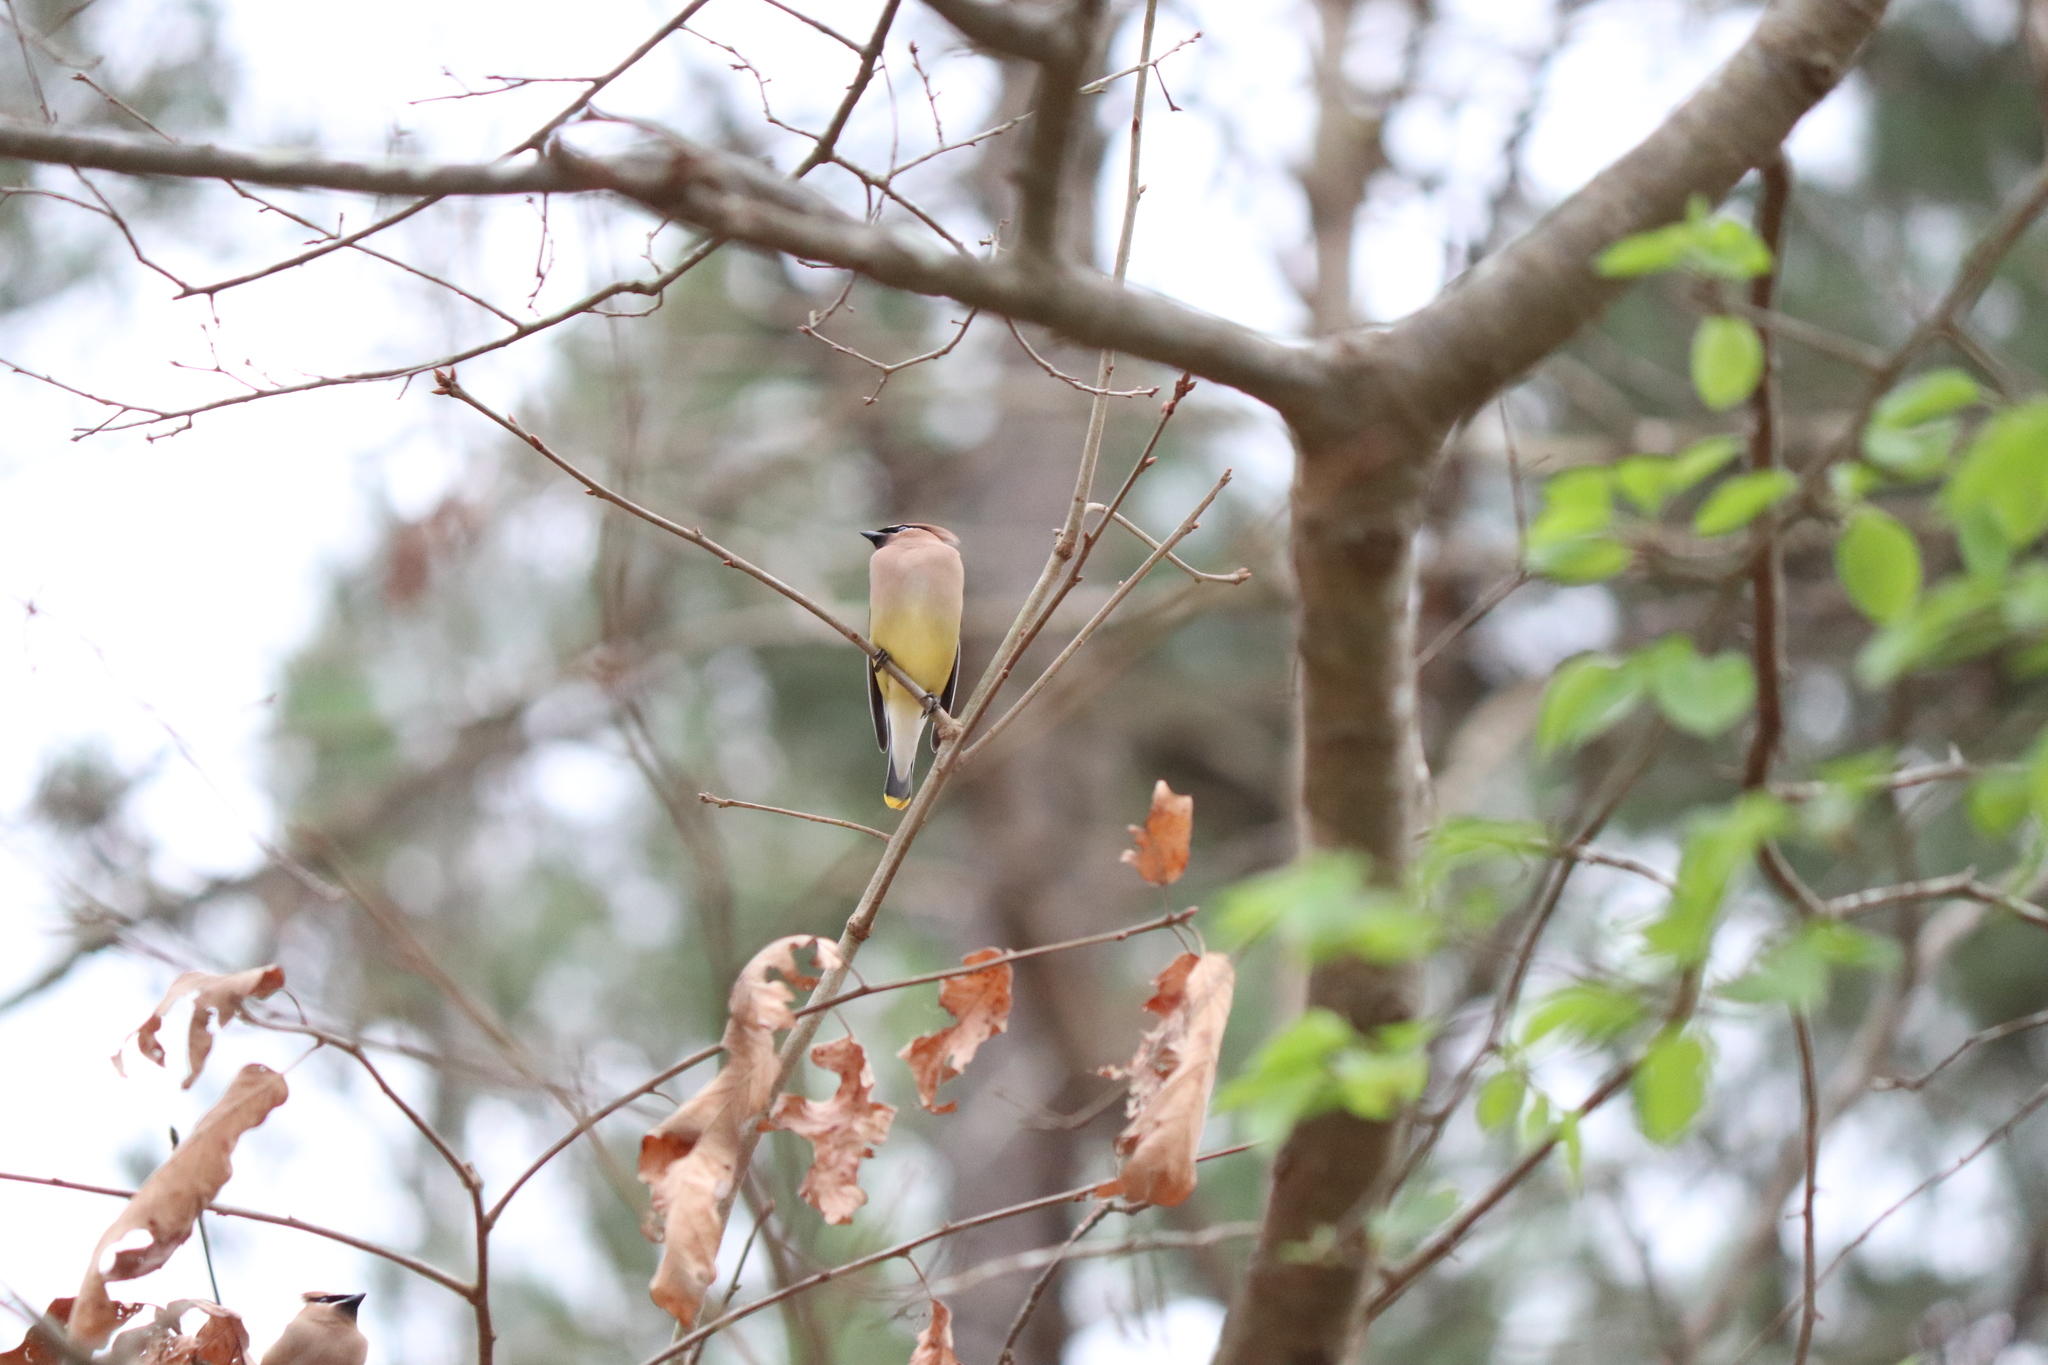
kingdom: Animalia
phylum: Chordata
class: Aves
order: Passeriformes
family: Bombycillidae
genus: Bombycilla
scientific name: Bombycilla cedrorum
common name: Cedar waxwing
